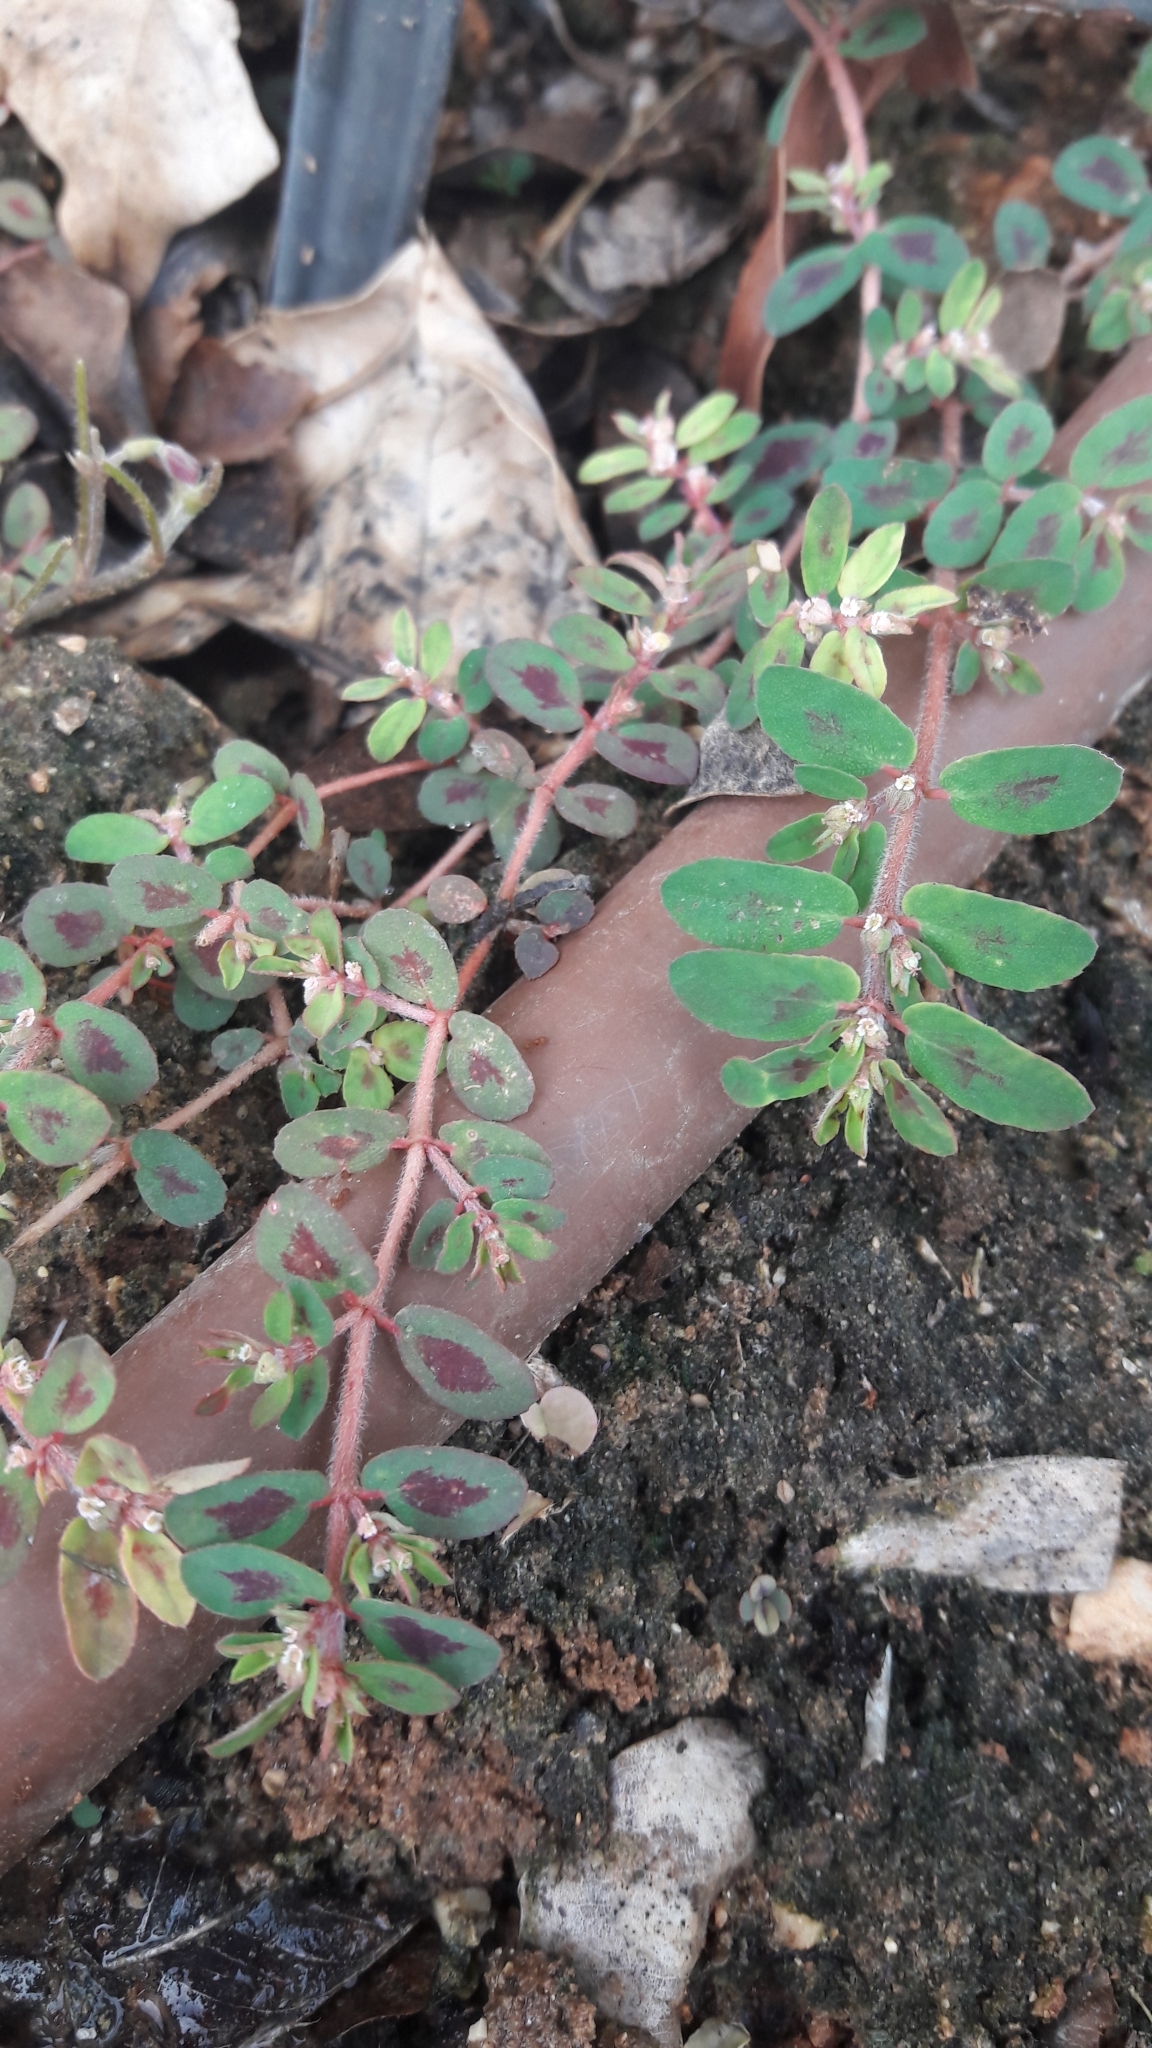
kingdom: Plantae
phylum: Tracheophyta
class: Magnoliopsida
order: Malpighiales
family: Euphorbiaceae
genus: Euphorbia
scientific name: Euphorbia maculata
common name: Spotted spurge
